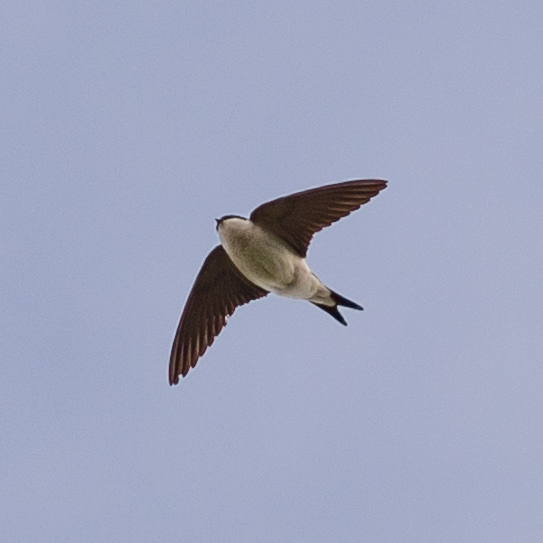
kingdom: Animalia
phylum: Chordata
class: Aves
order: Passeriformes
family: Hirundinidae
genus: Delichon
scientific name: Delichon urbicum
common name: Common house martin
